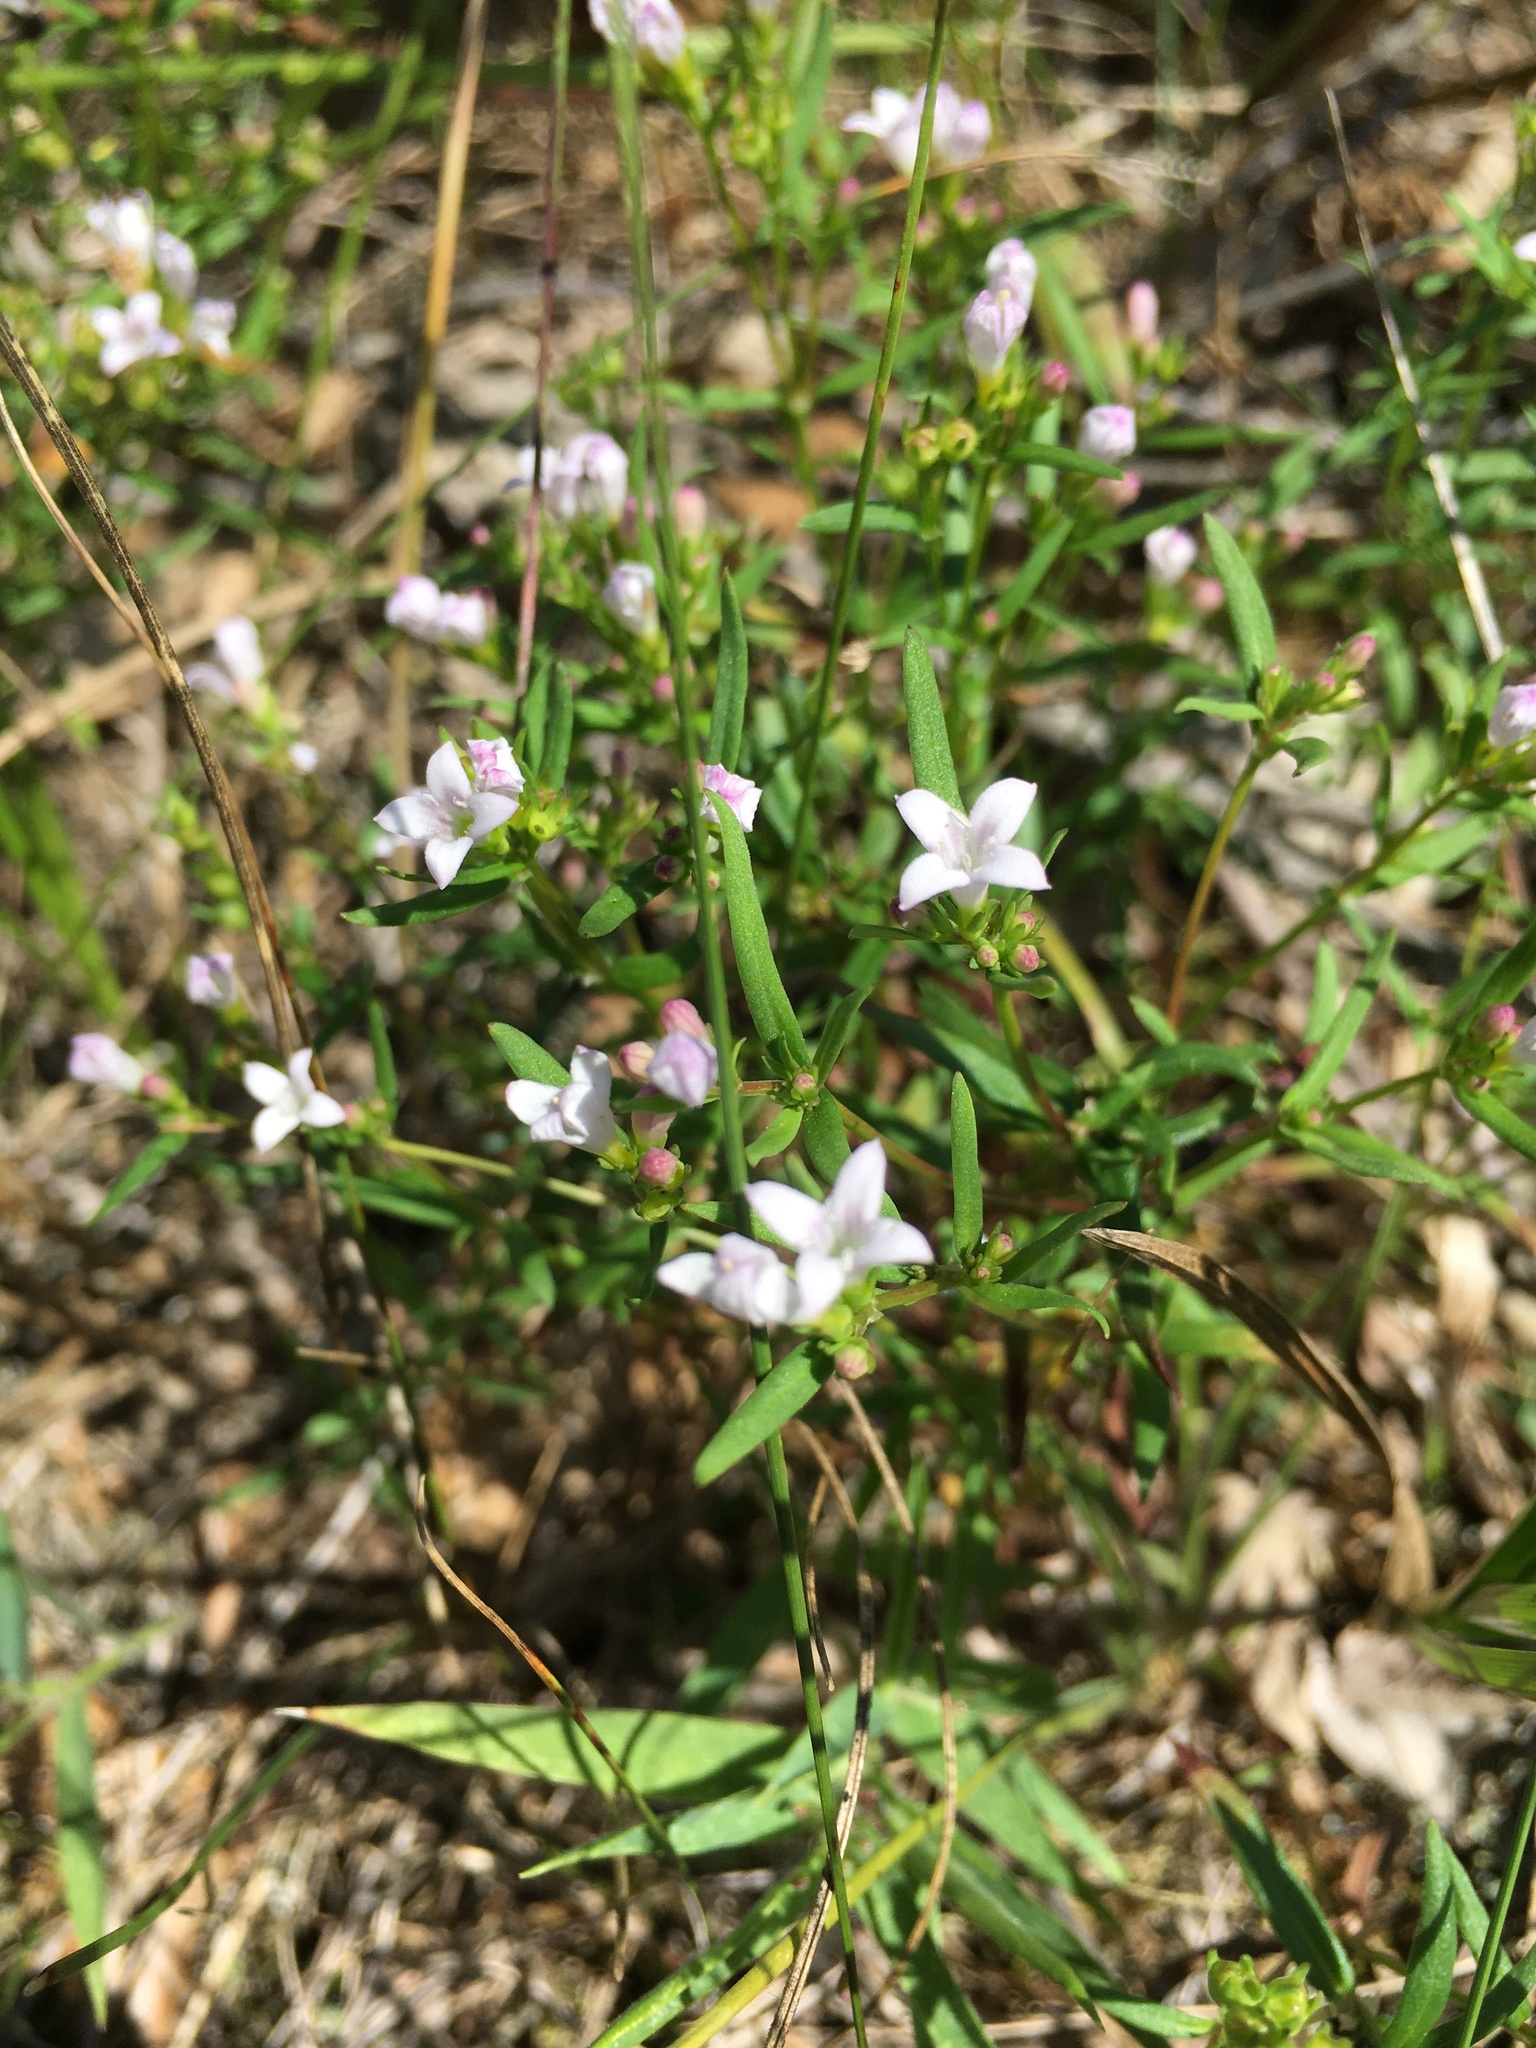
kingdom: Plantae
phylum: Tracheophyta
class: Magnoliopsida
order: Gentianales
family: Rubiaceae
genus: Houstonia
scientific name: Houstonia longifolia
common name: Long-leaved bluets
